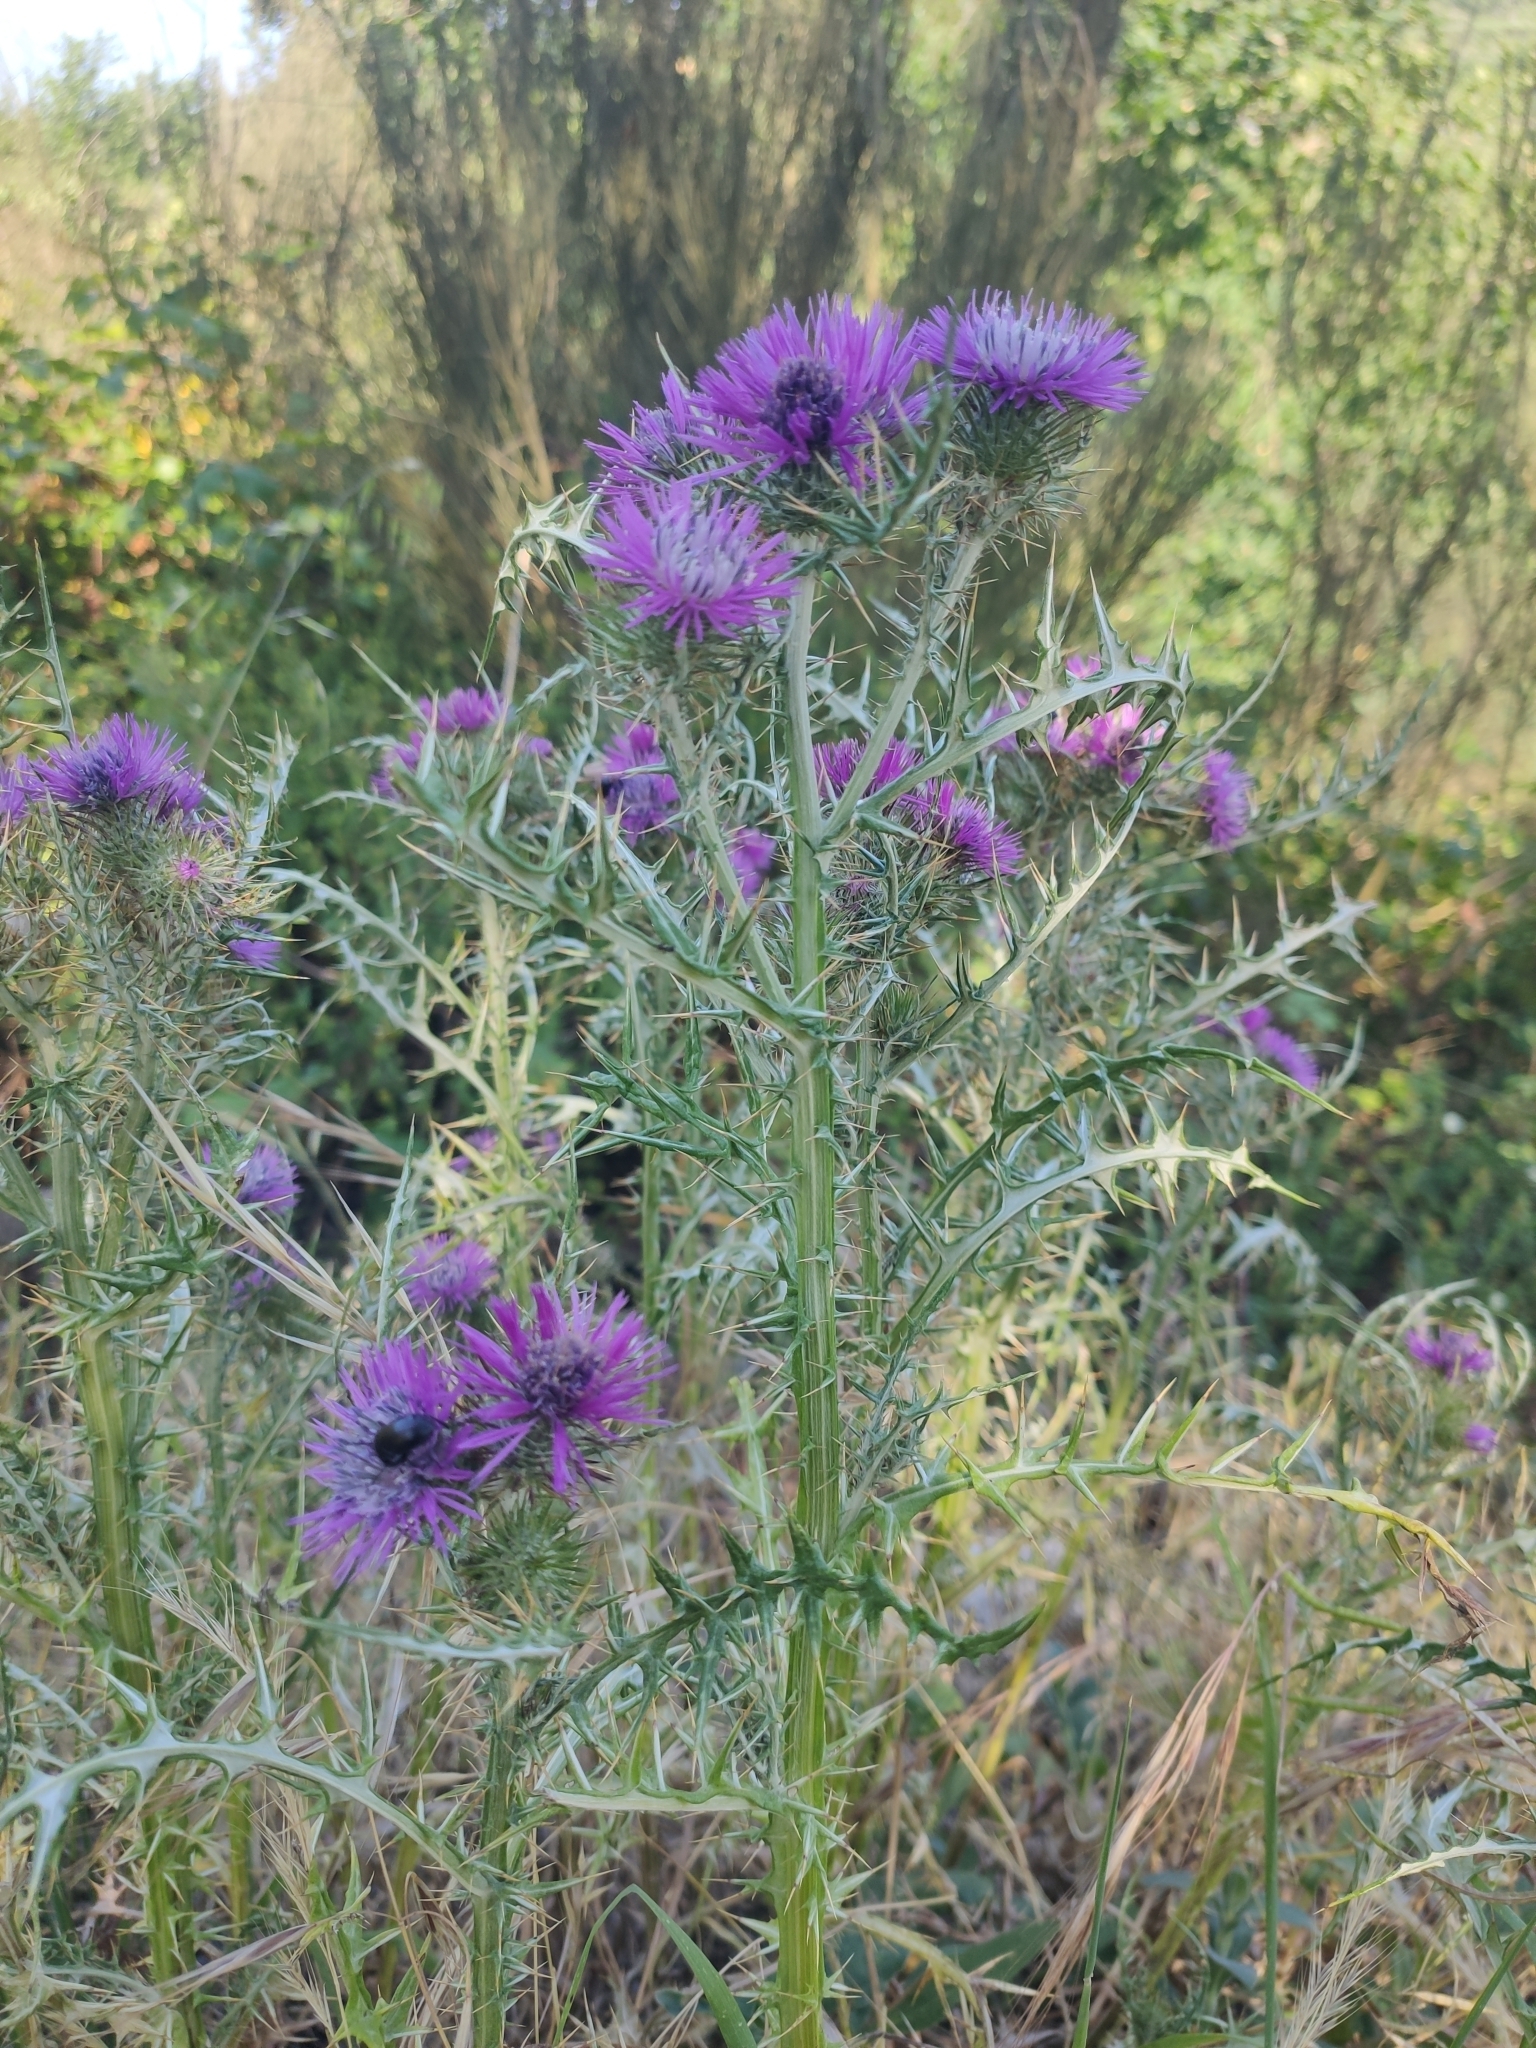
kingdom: Plantae
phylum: Tracheophyta
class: Magnoliopsida
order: Asterales
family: Asteraceae
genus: Galactites
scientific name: Galactites tomentosa
